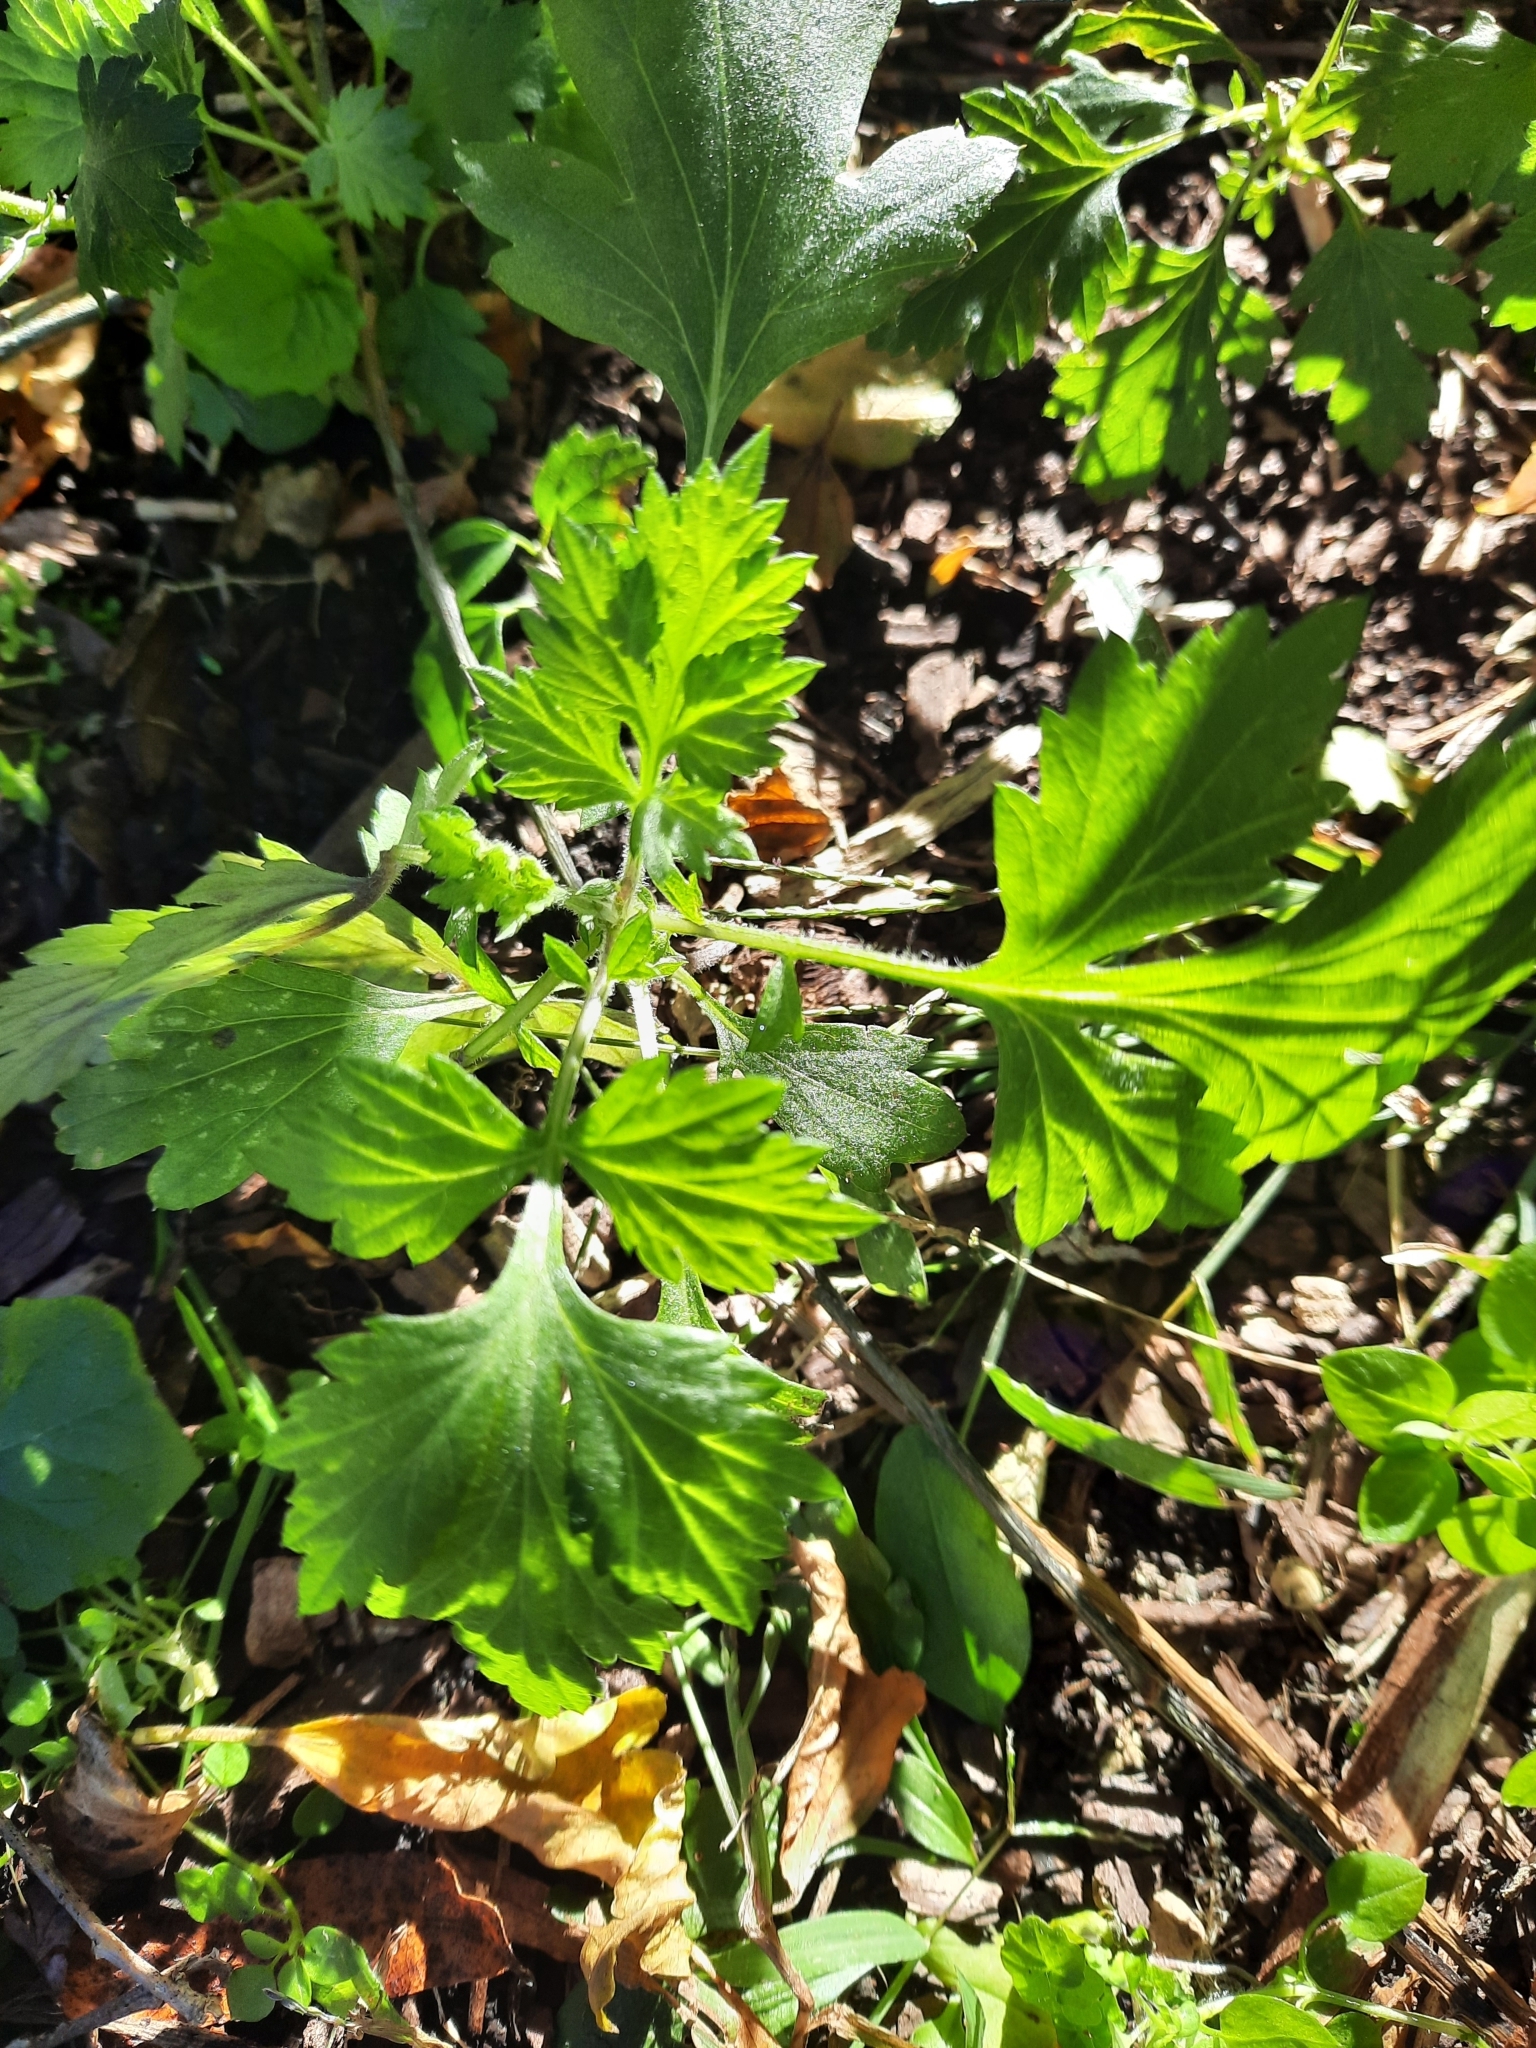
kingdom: Plantae
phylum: Tracheophyta
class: Magnoliopsida
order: Asterales
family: Asteraceae
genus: Artemisia
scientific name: Artemisia vulgaris
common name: Mugwort
